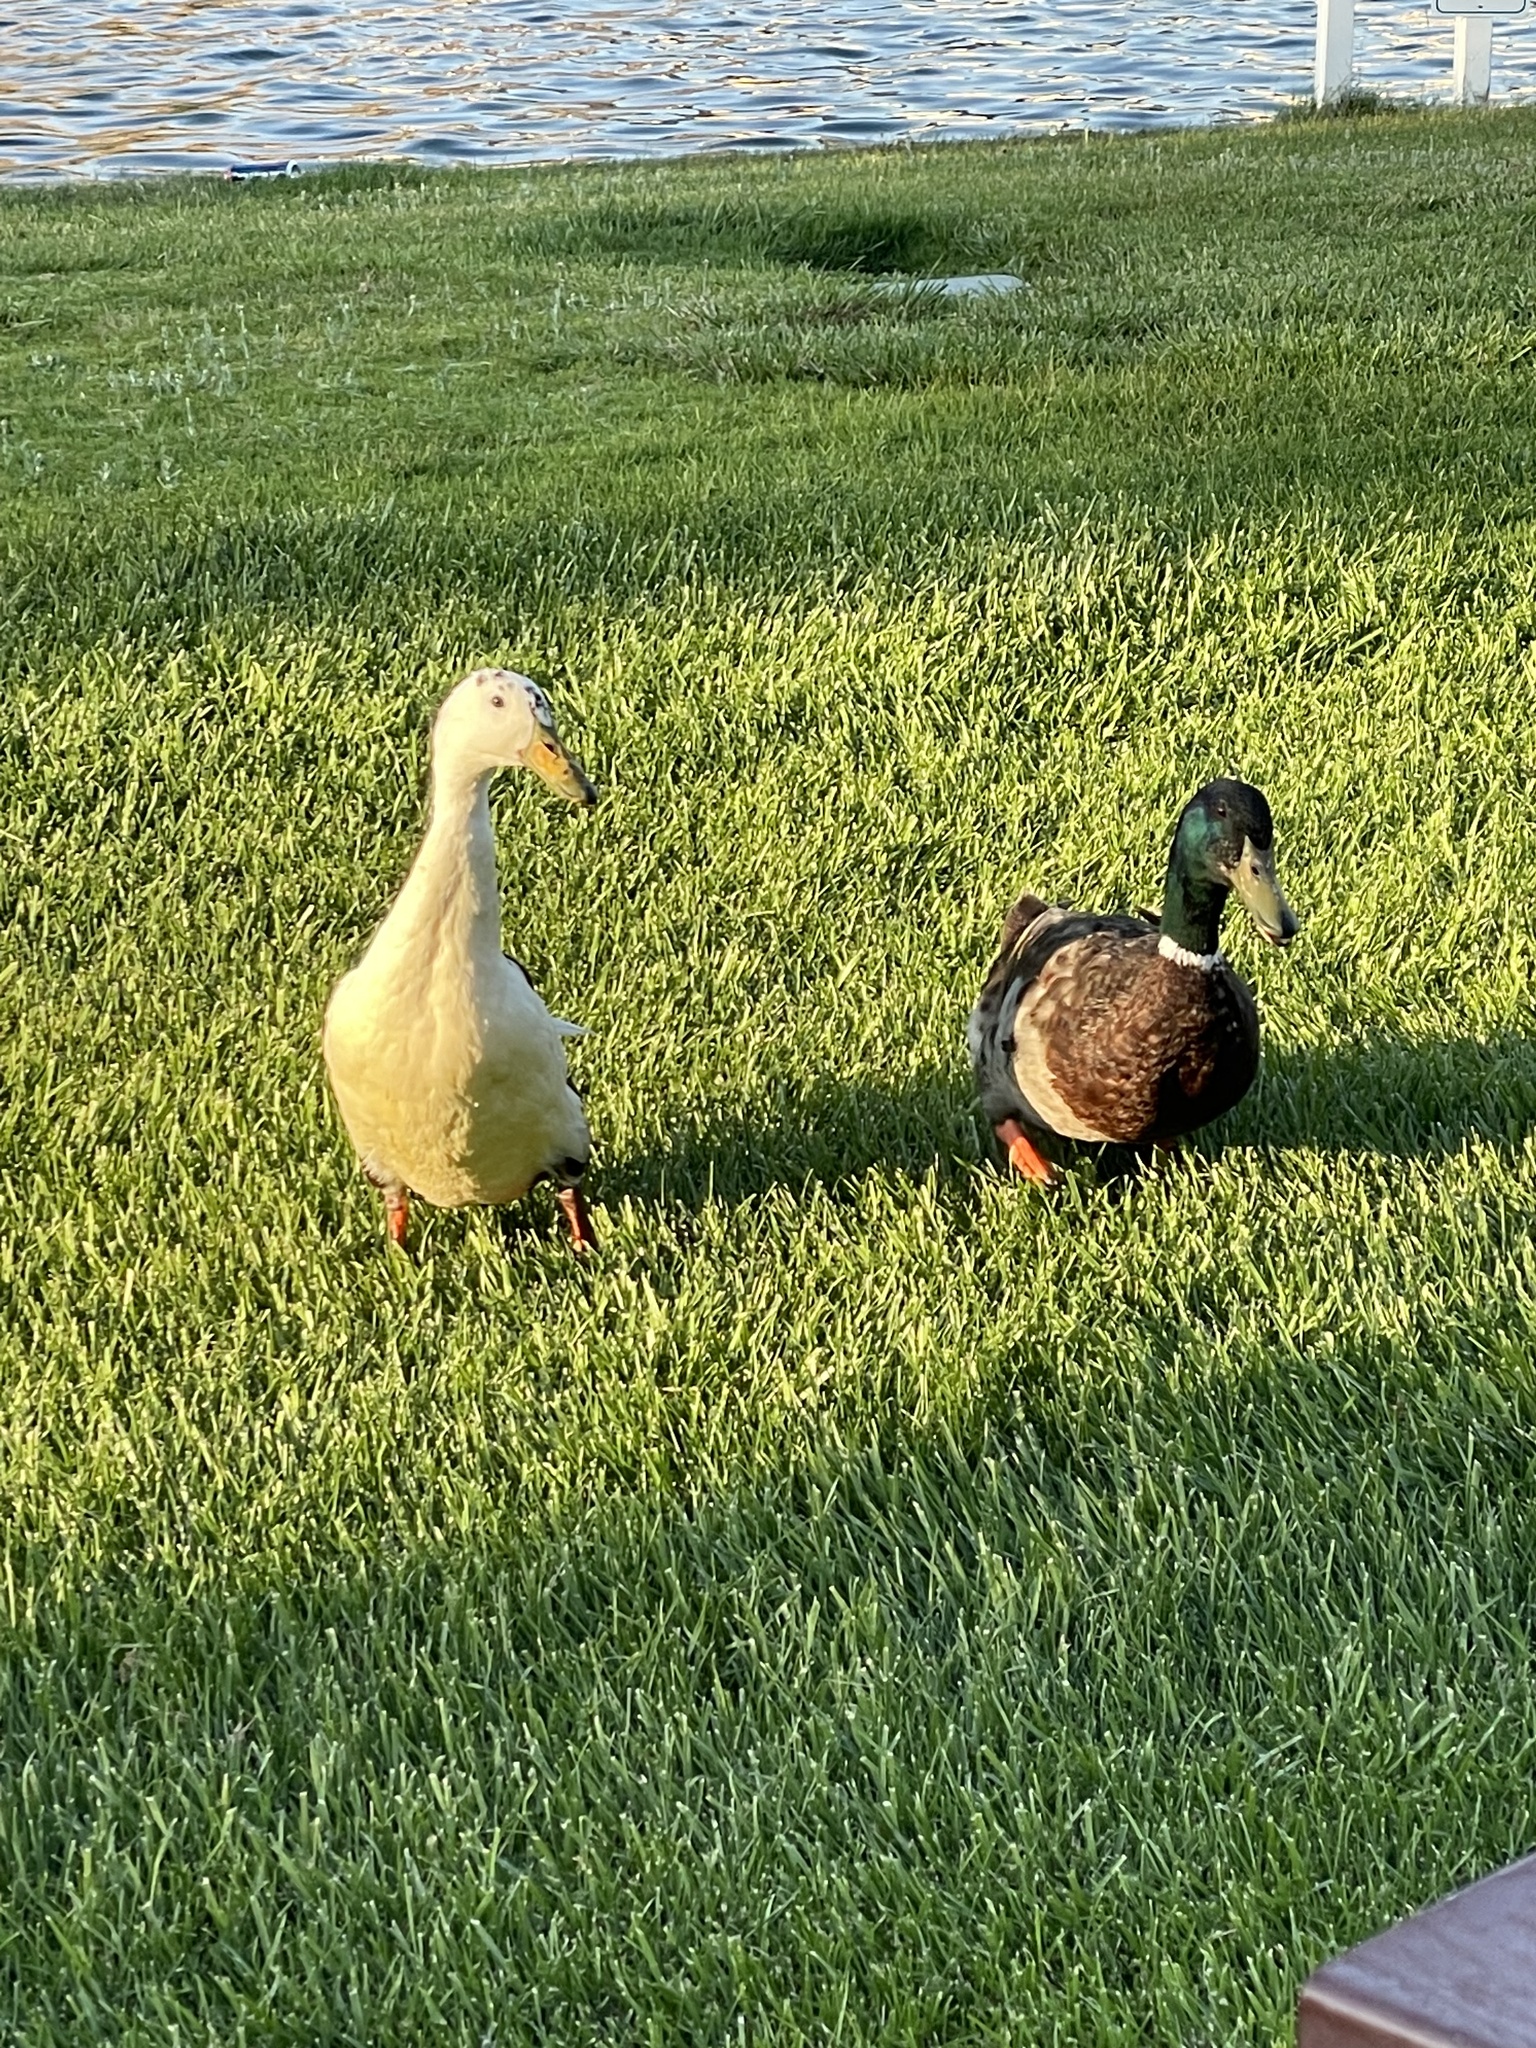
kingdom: Animalia
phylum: Chordata
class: Aves
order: Anseriformes
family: Anatidae
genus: Anas
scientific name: Anas platyrhynchos
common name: Mallard
